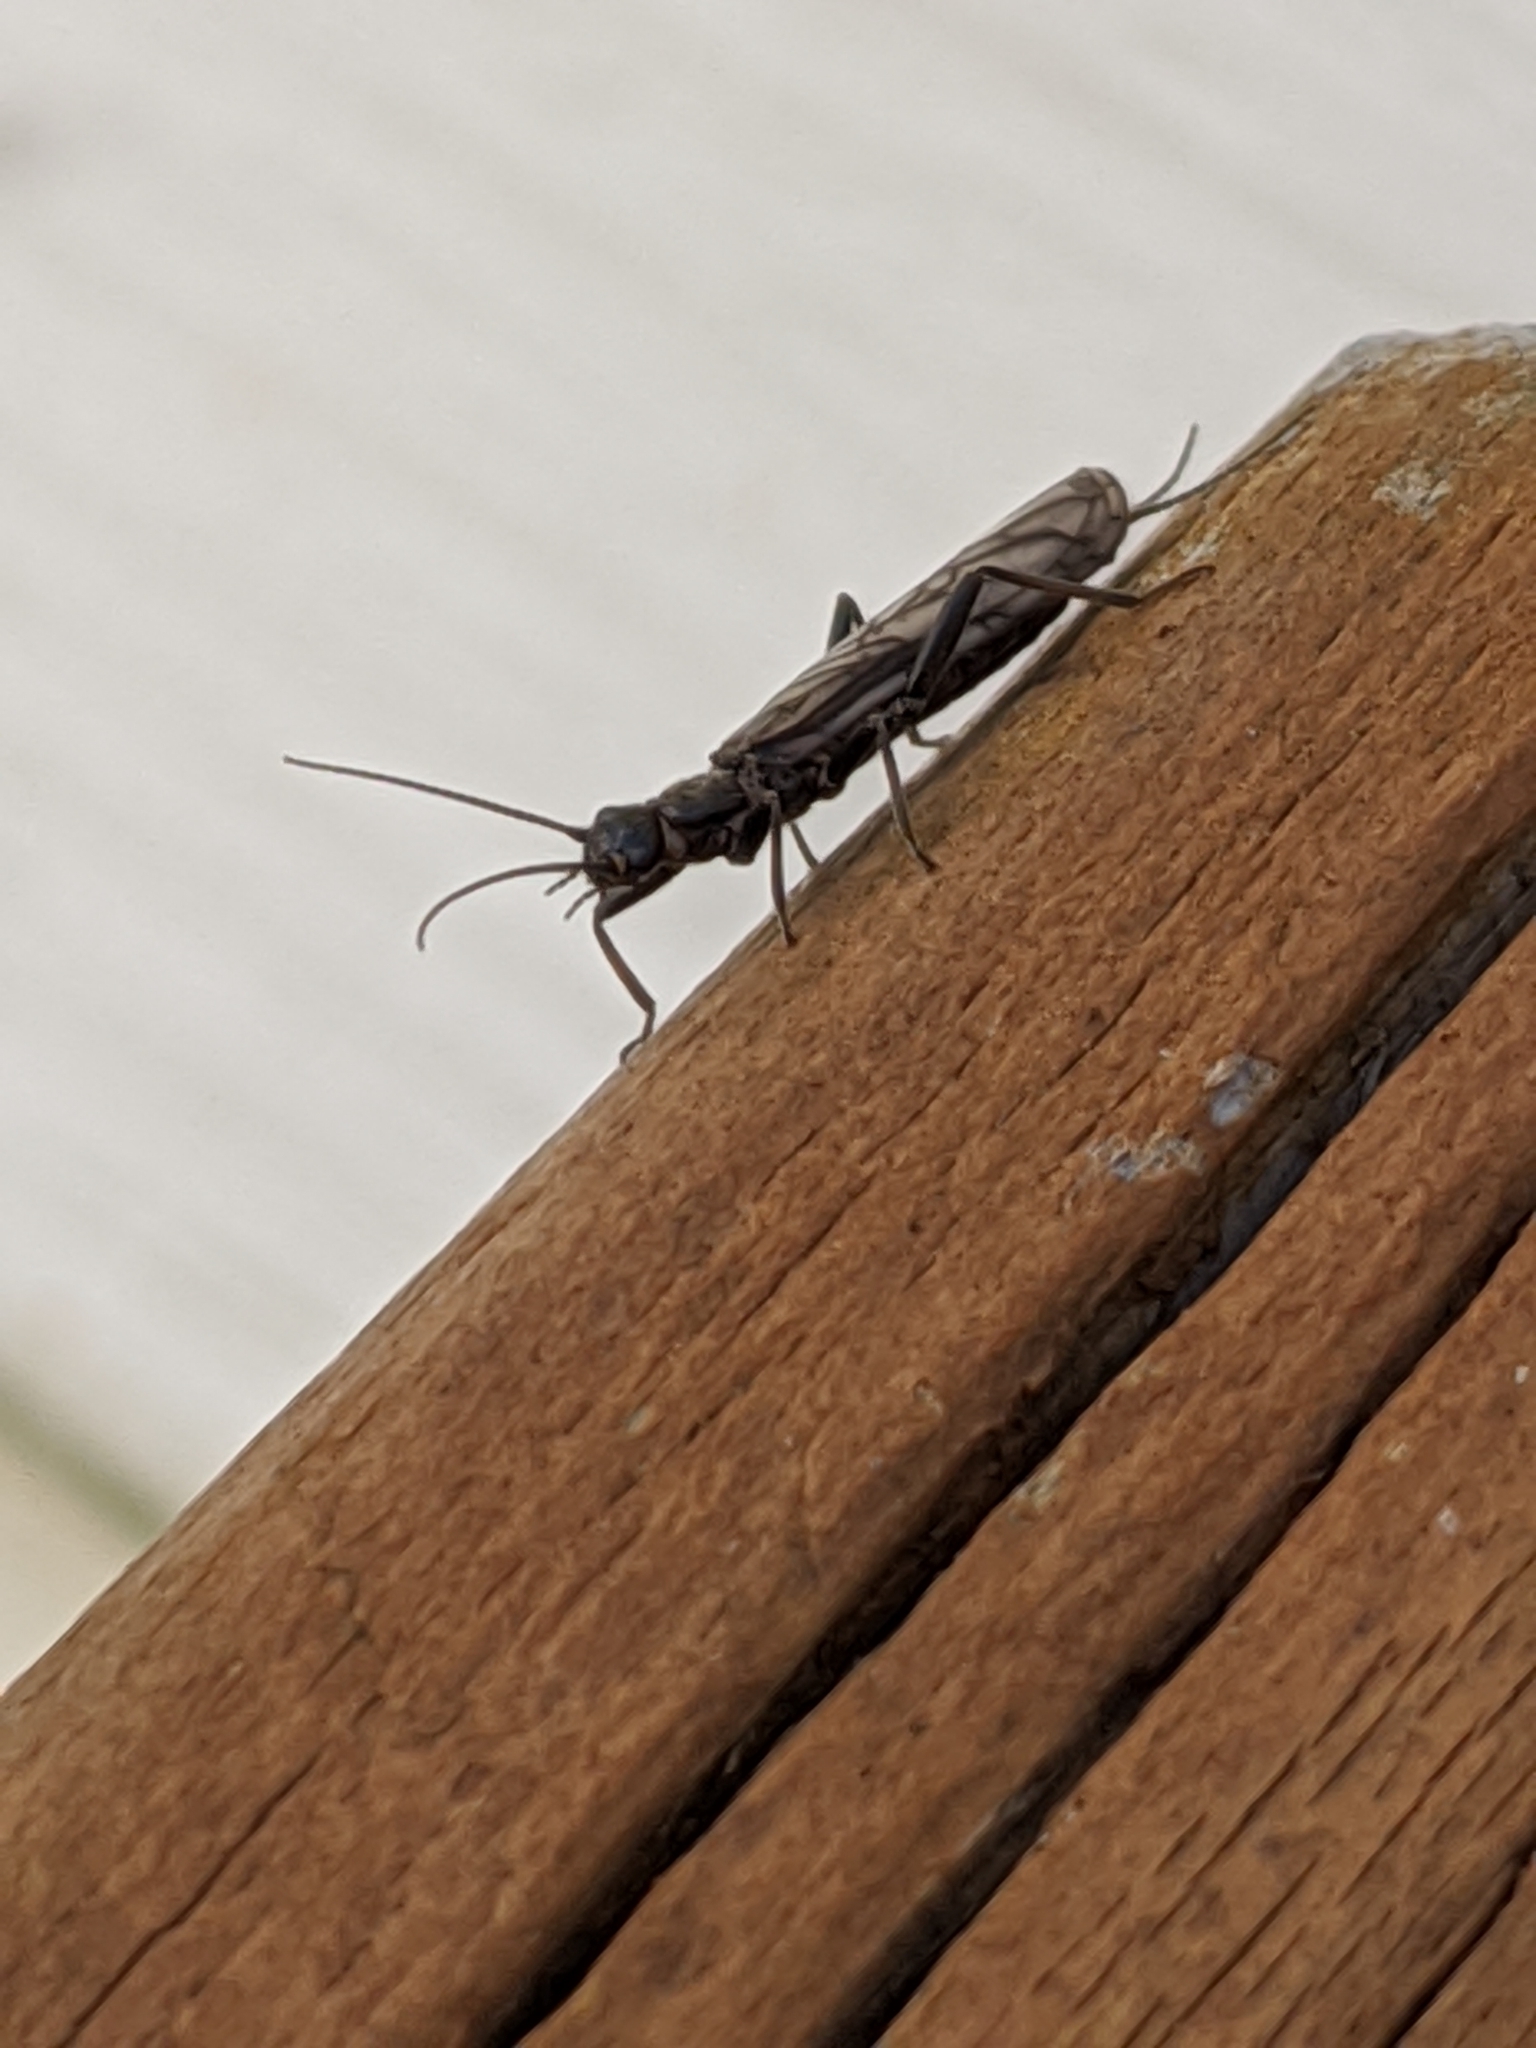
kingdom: Animalia
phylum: Arthropoda
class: Insecta
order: Plecoptera
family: Capniidae
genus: Allocapnia
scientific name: Allocapnia
